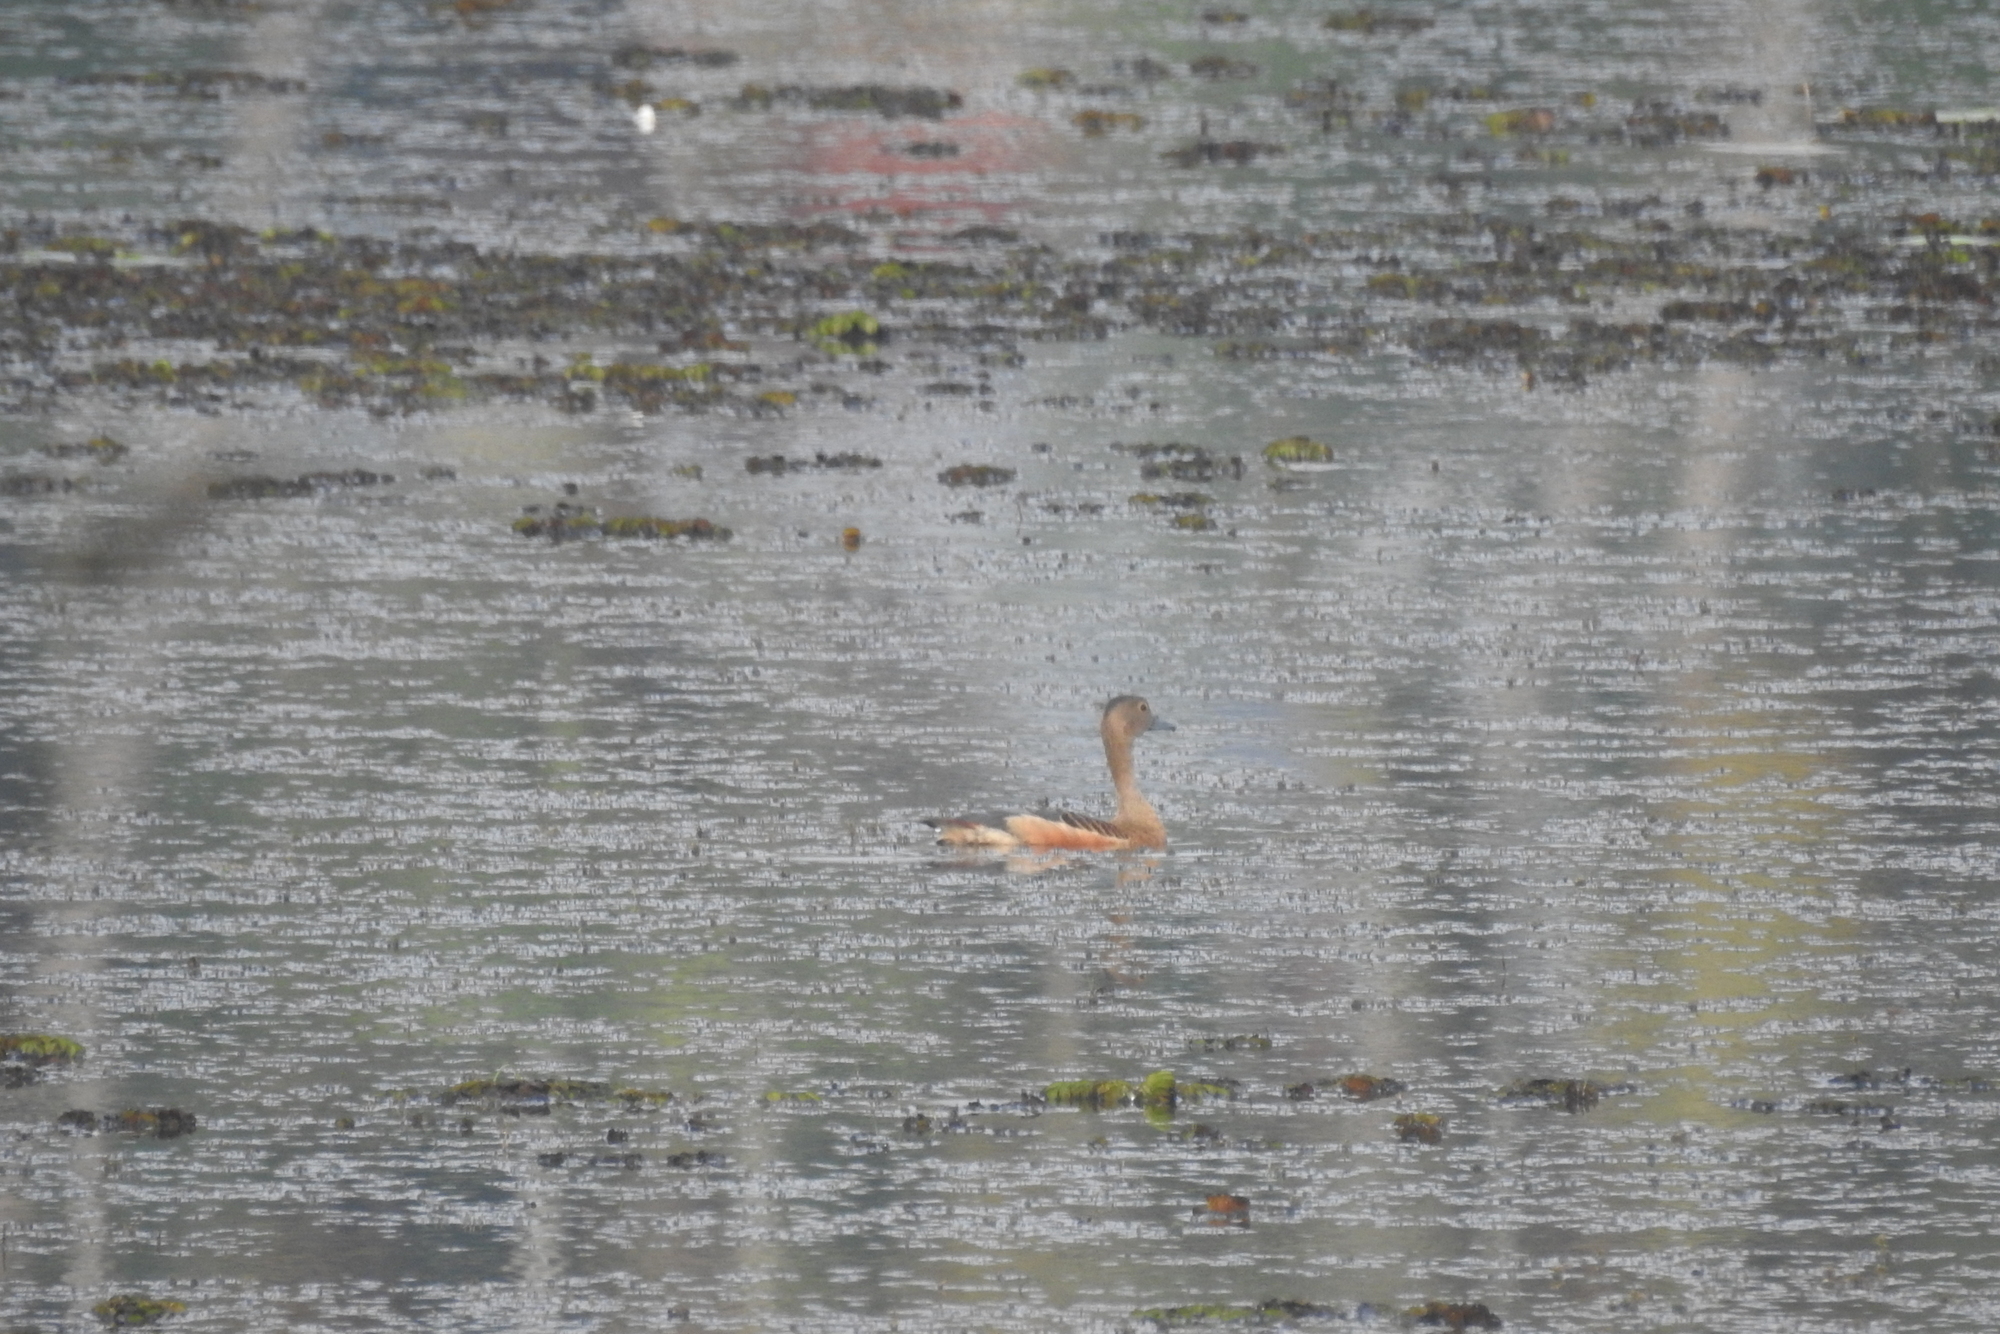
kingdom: Animalia
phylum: Chordata
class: Aves
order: Anseriformes
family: Anatidae
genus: Dendrocygna
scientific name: Dendrocygna javanica
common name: Lesser whistling-duck
